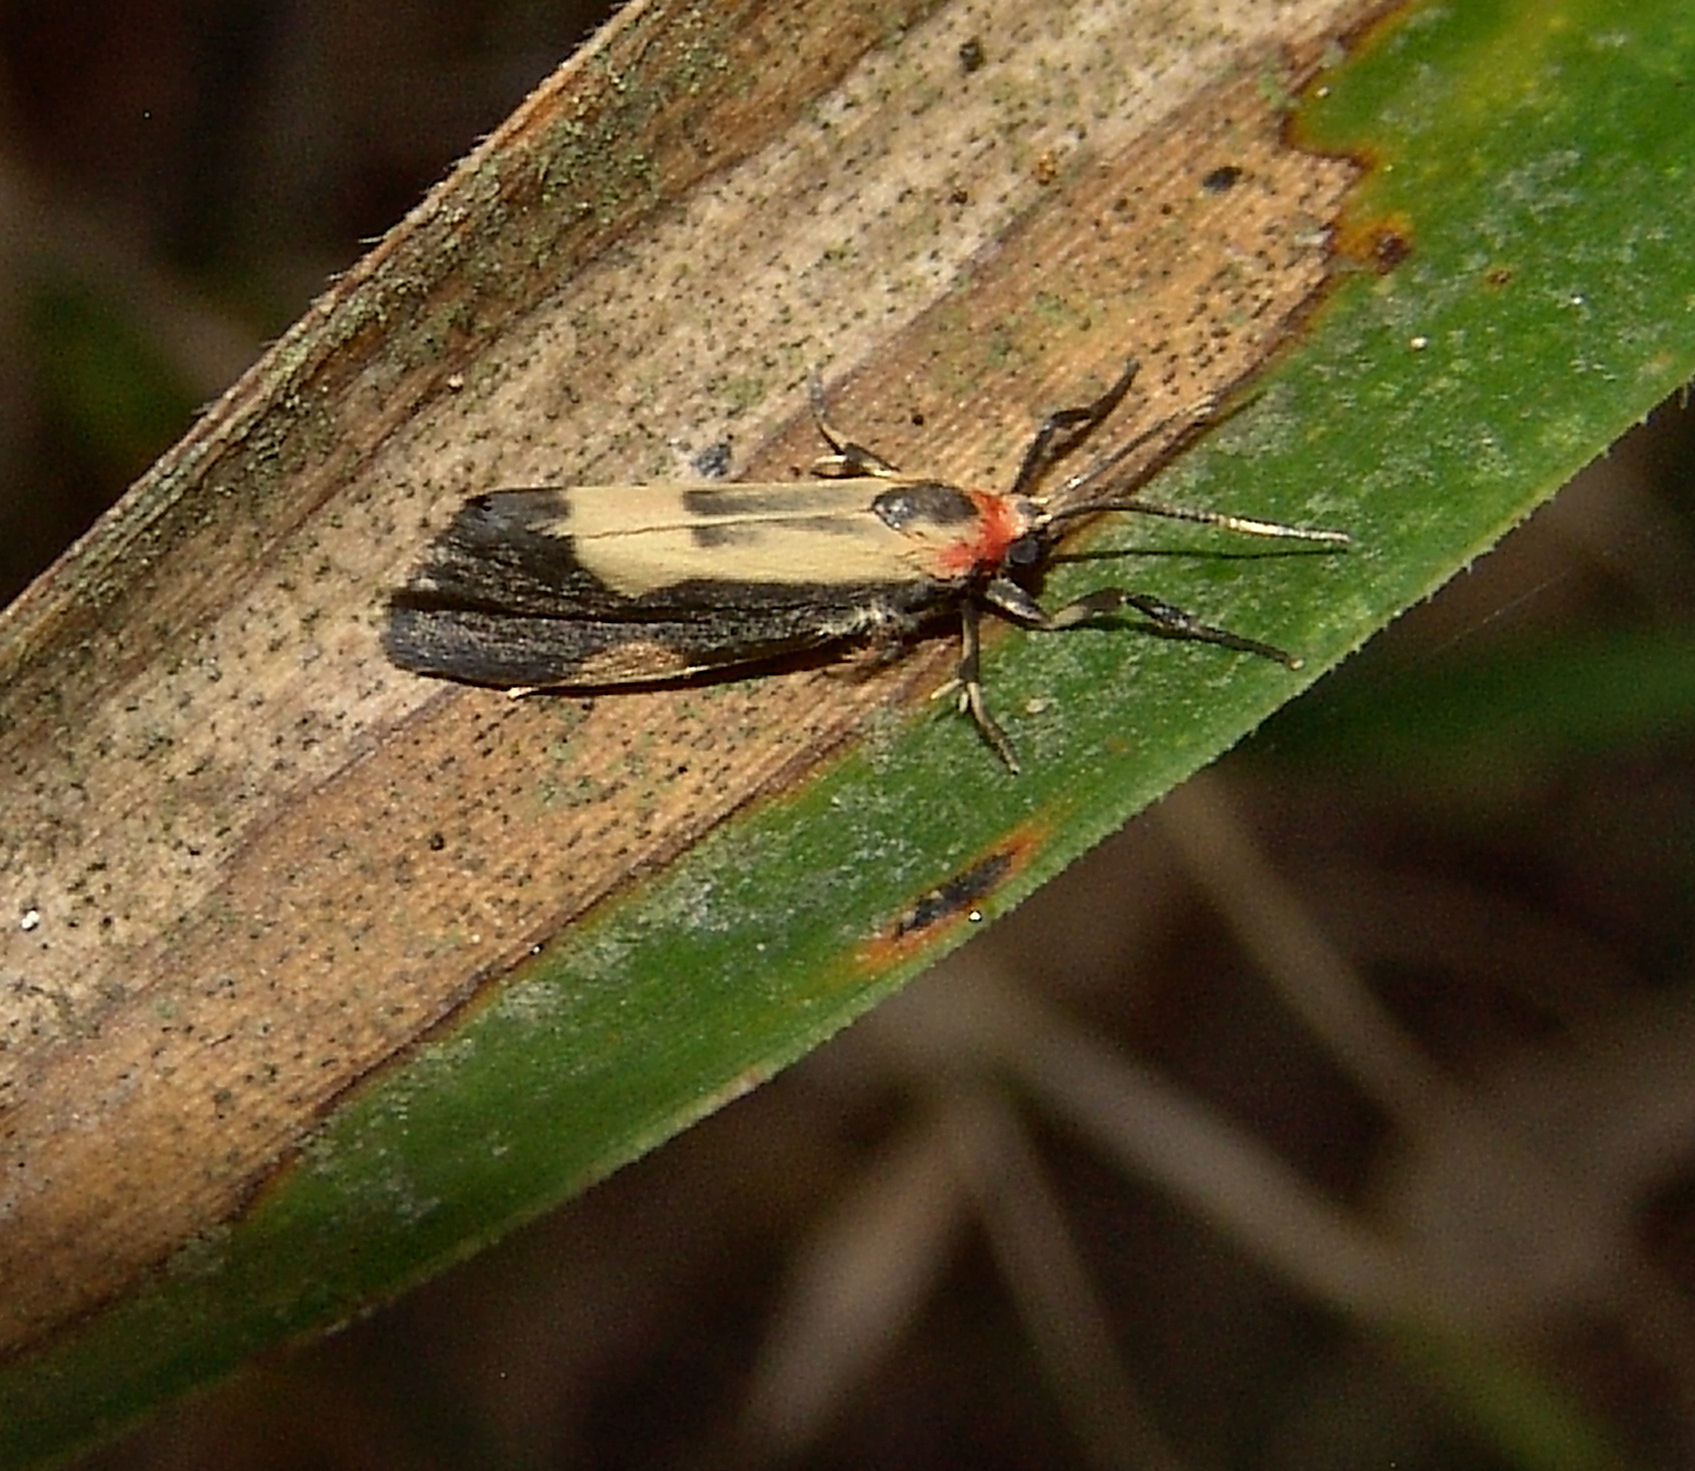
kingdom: Animalia
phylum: Arthropoda
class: Insecta
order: Lepidoptera
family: Erebidae
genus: Cisthene
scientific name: Cisthene packardii
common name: Packard's lichen moth
